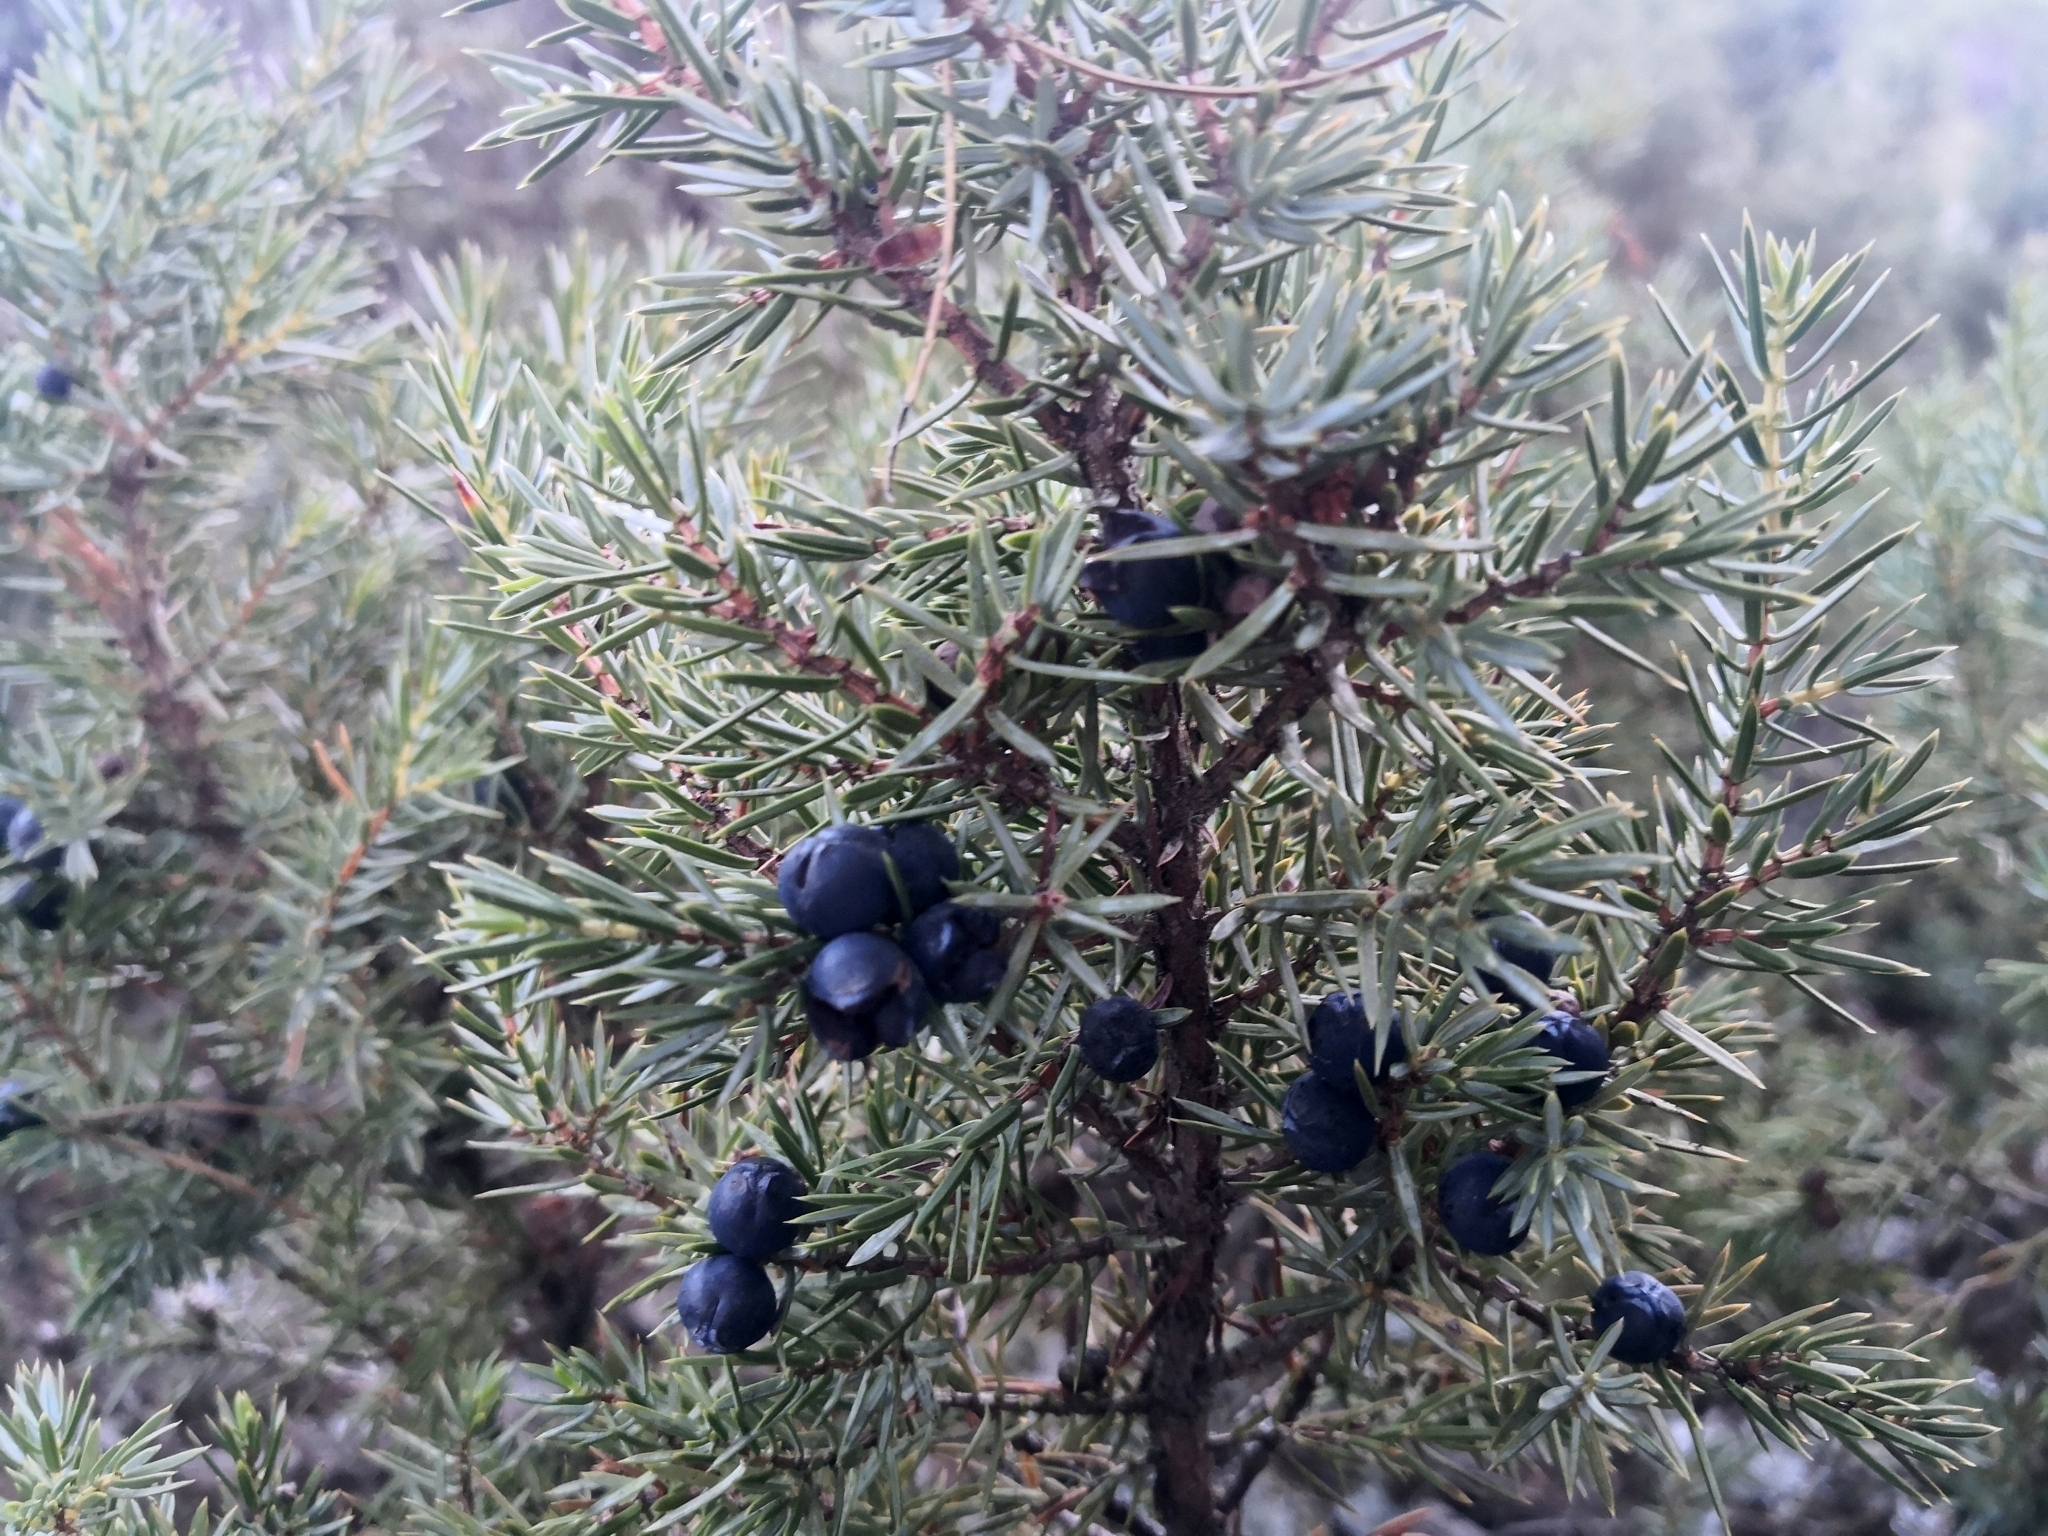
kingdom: Plantae
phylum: Tracheophyta
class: Pinopsida
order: Pinales
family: Cupressaceae
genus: Juniperus
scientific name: Juniperus communis
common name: Common juniper
